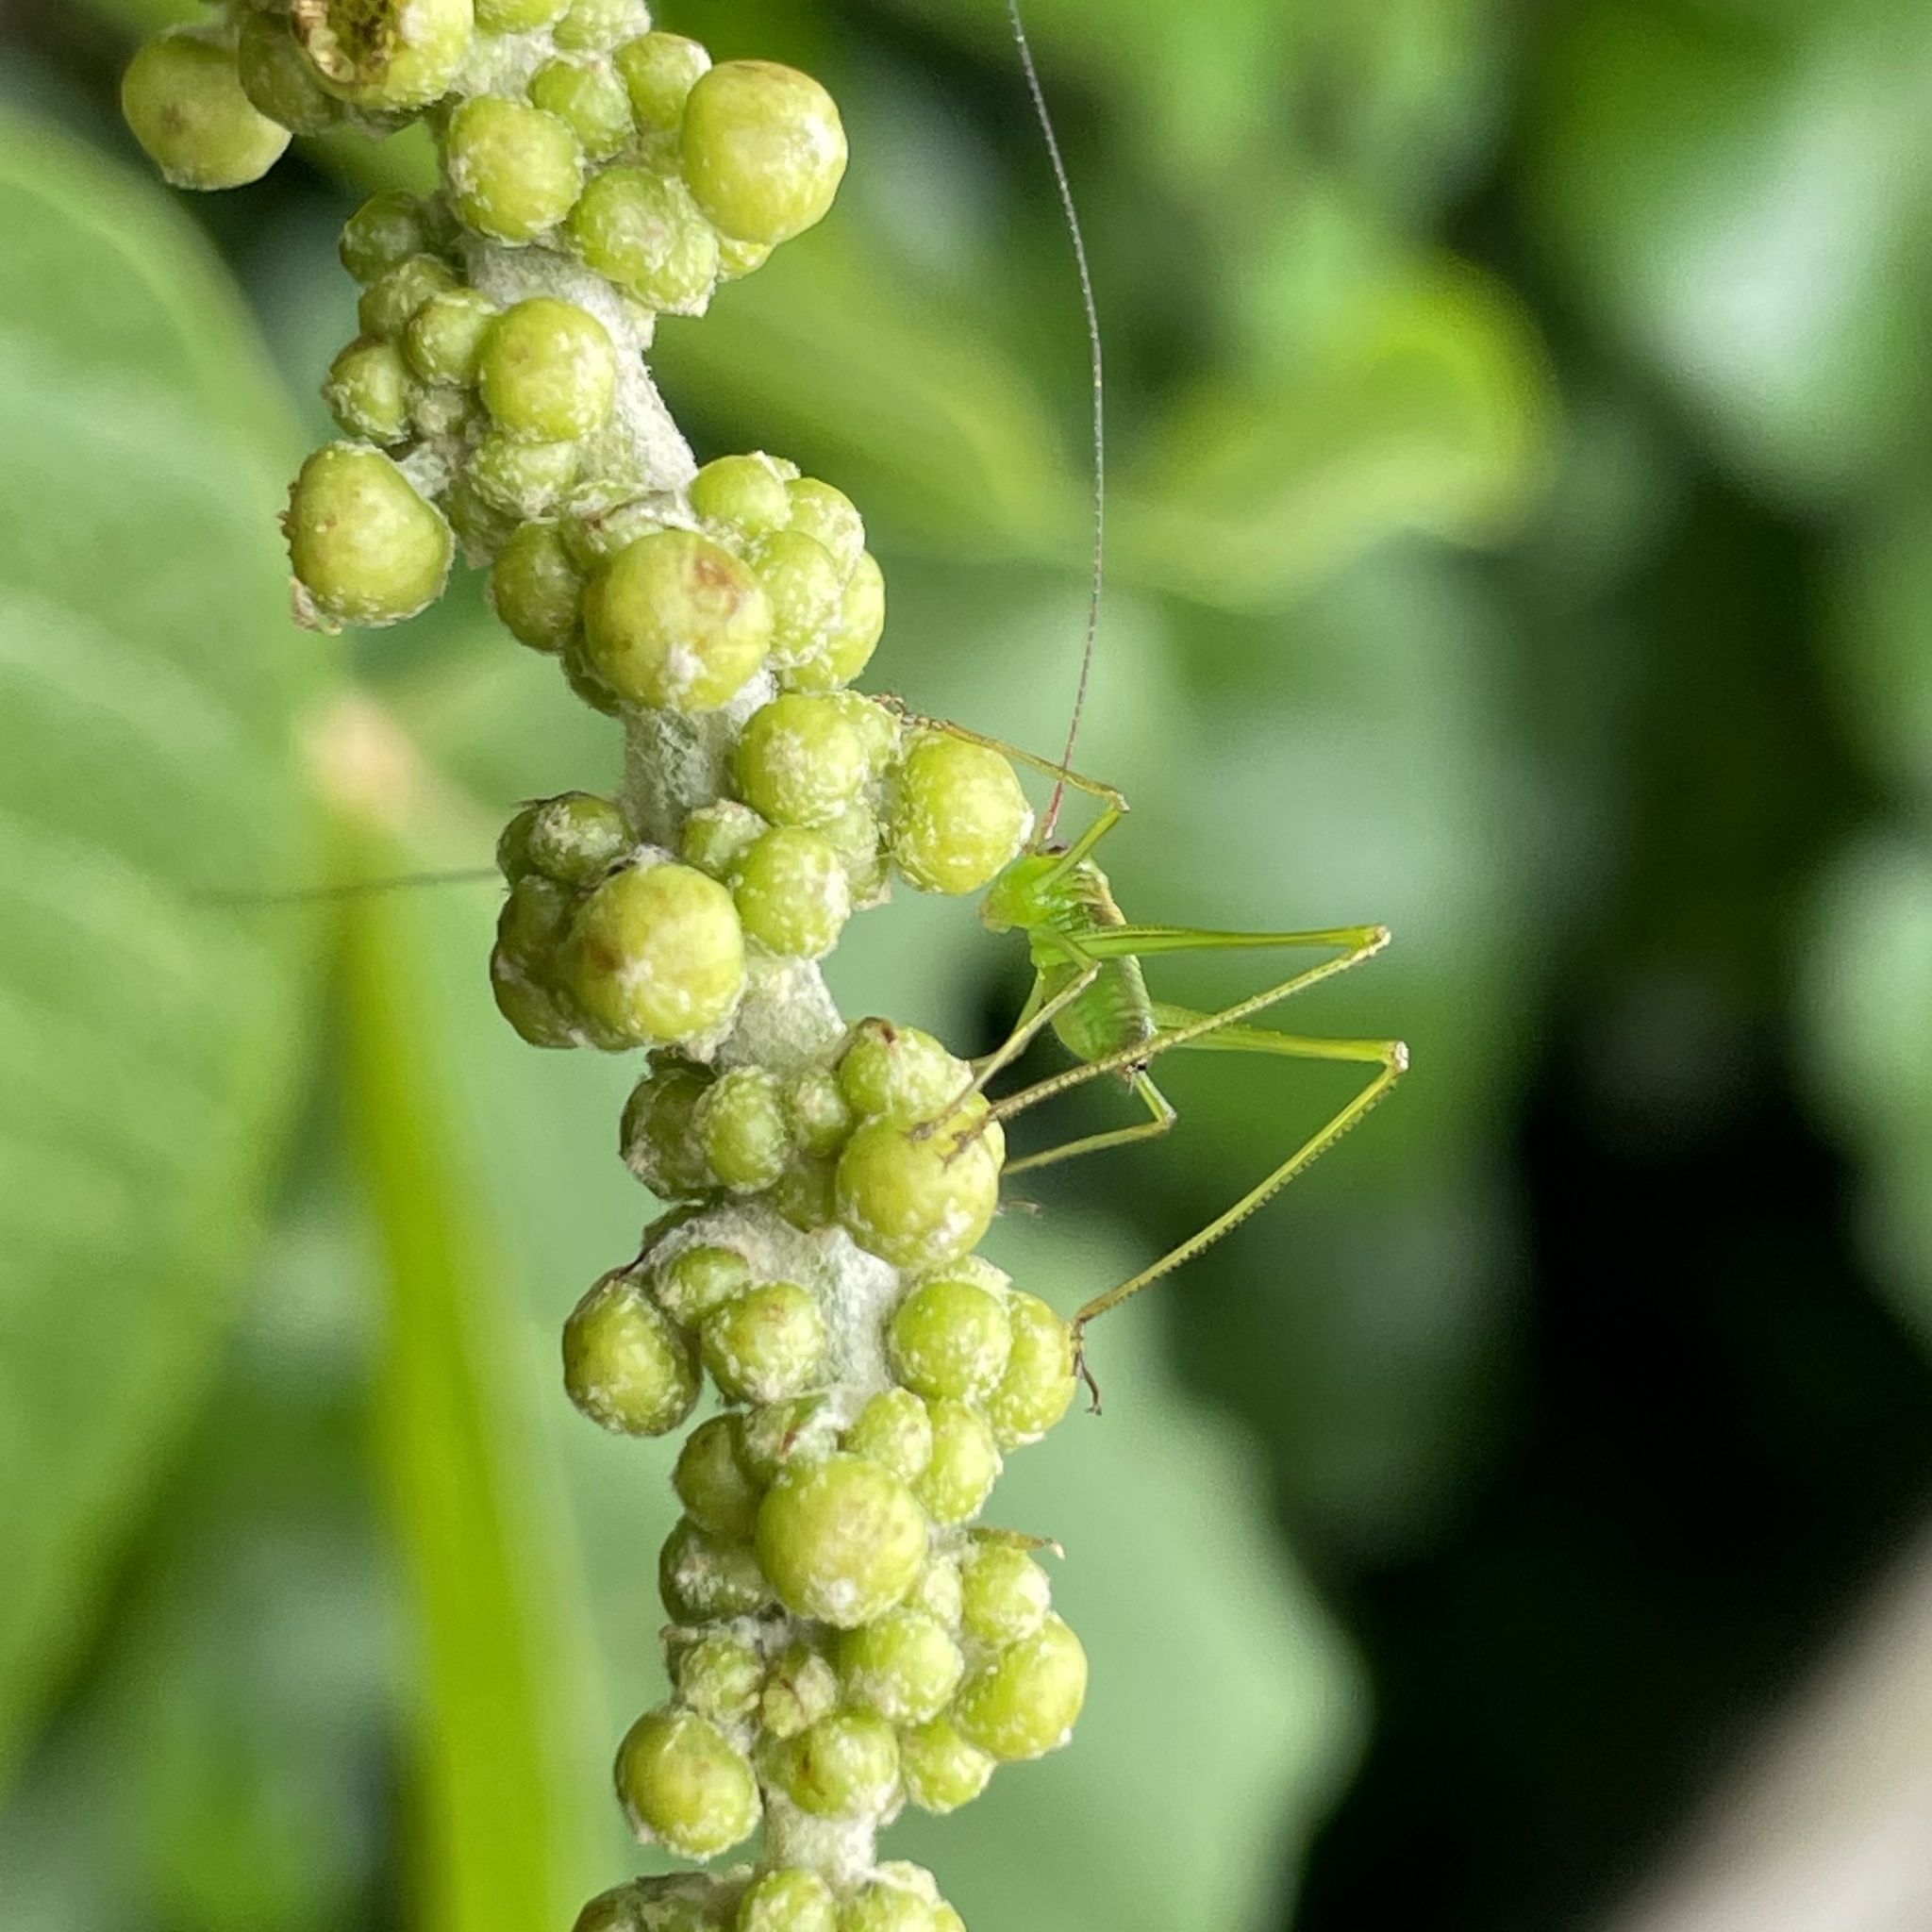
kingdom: Animalia
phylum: Arthropoda
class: Insecta
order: Orthoptera
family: Tettigoniidae
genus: Psyrana
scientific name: Psyrana ryukyuensis
